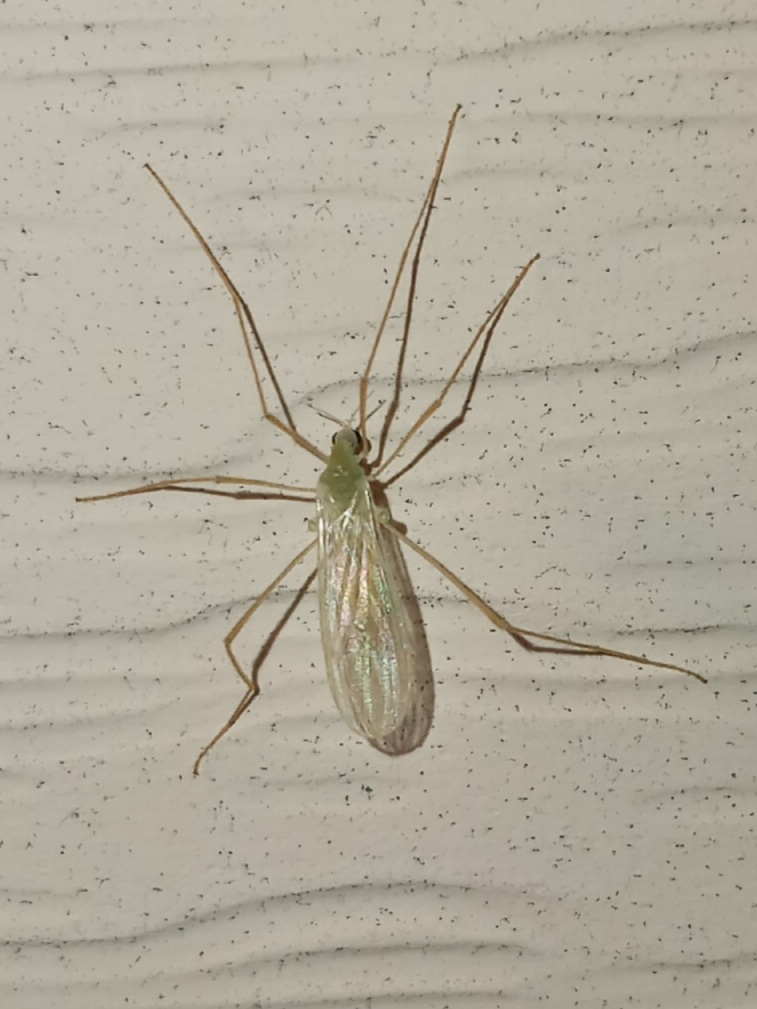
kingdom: Animalia
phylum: Arthropoda
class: Insecta
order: Diptera
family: Limoniidae
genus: Erioptera
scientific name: Erioptera
